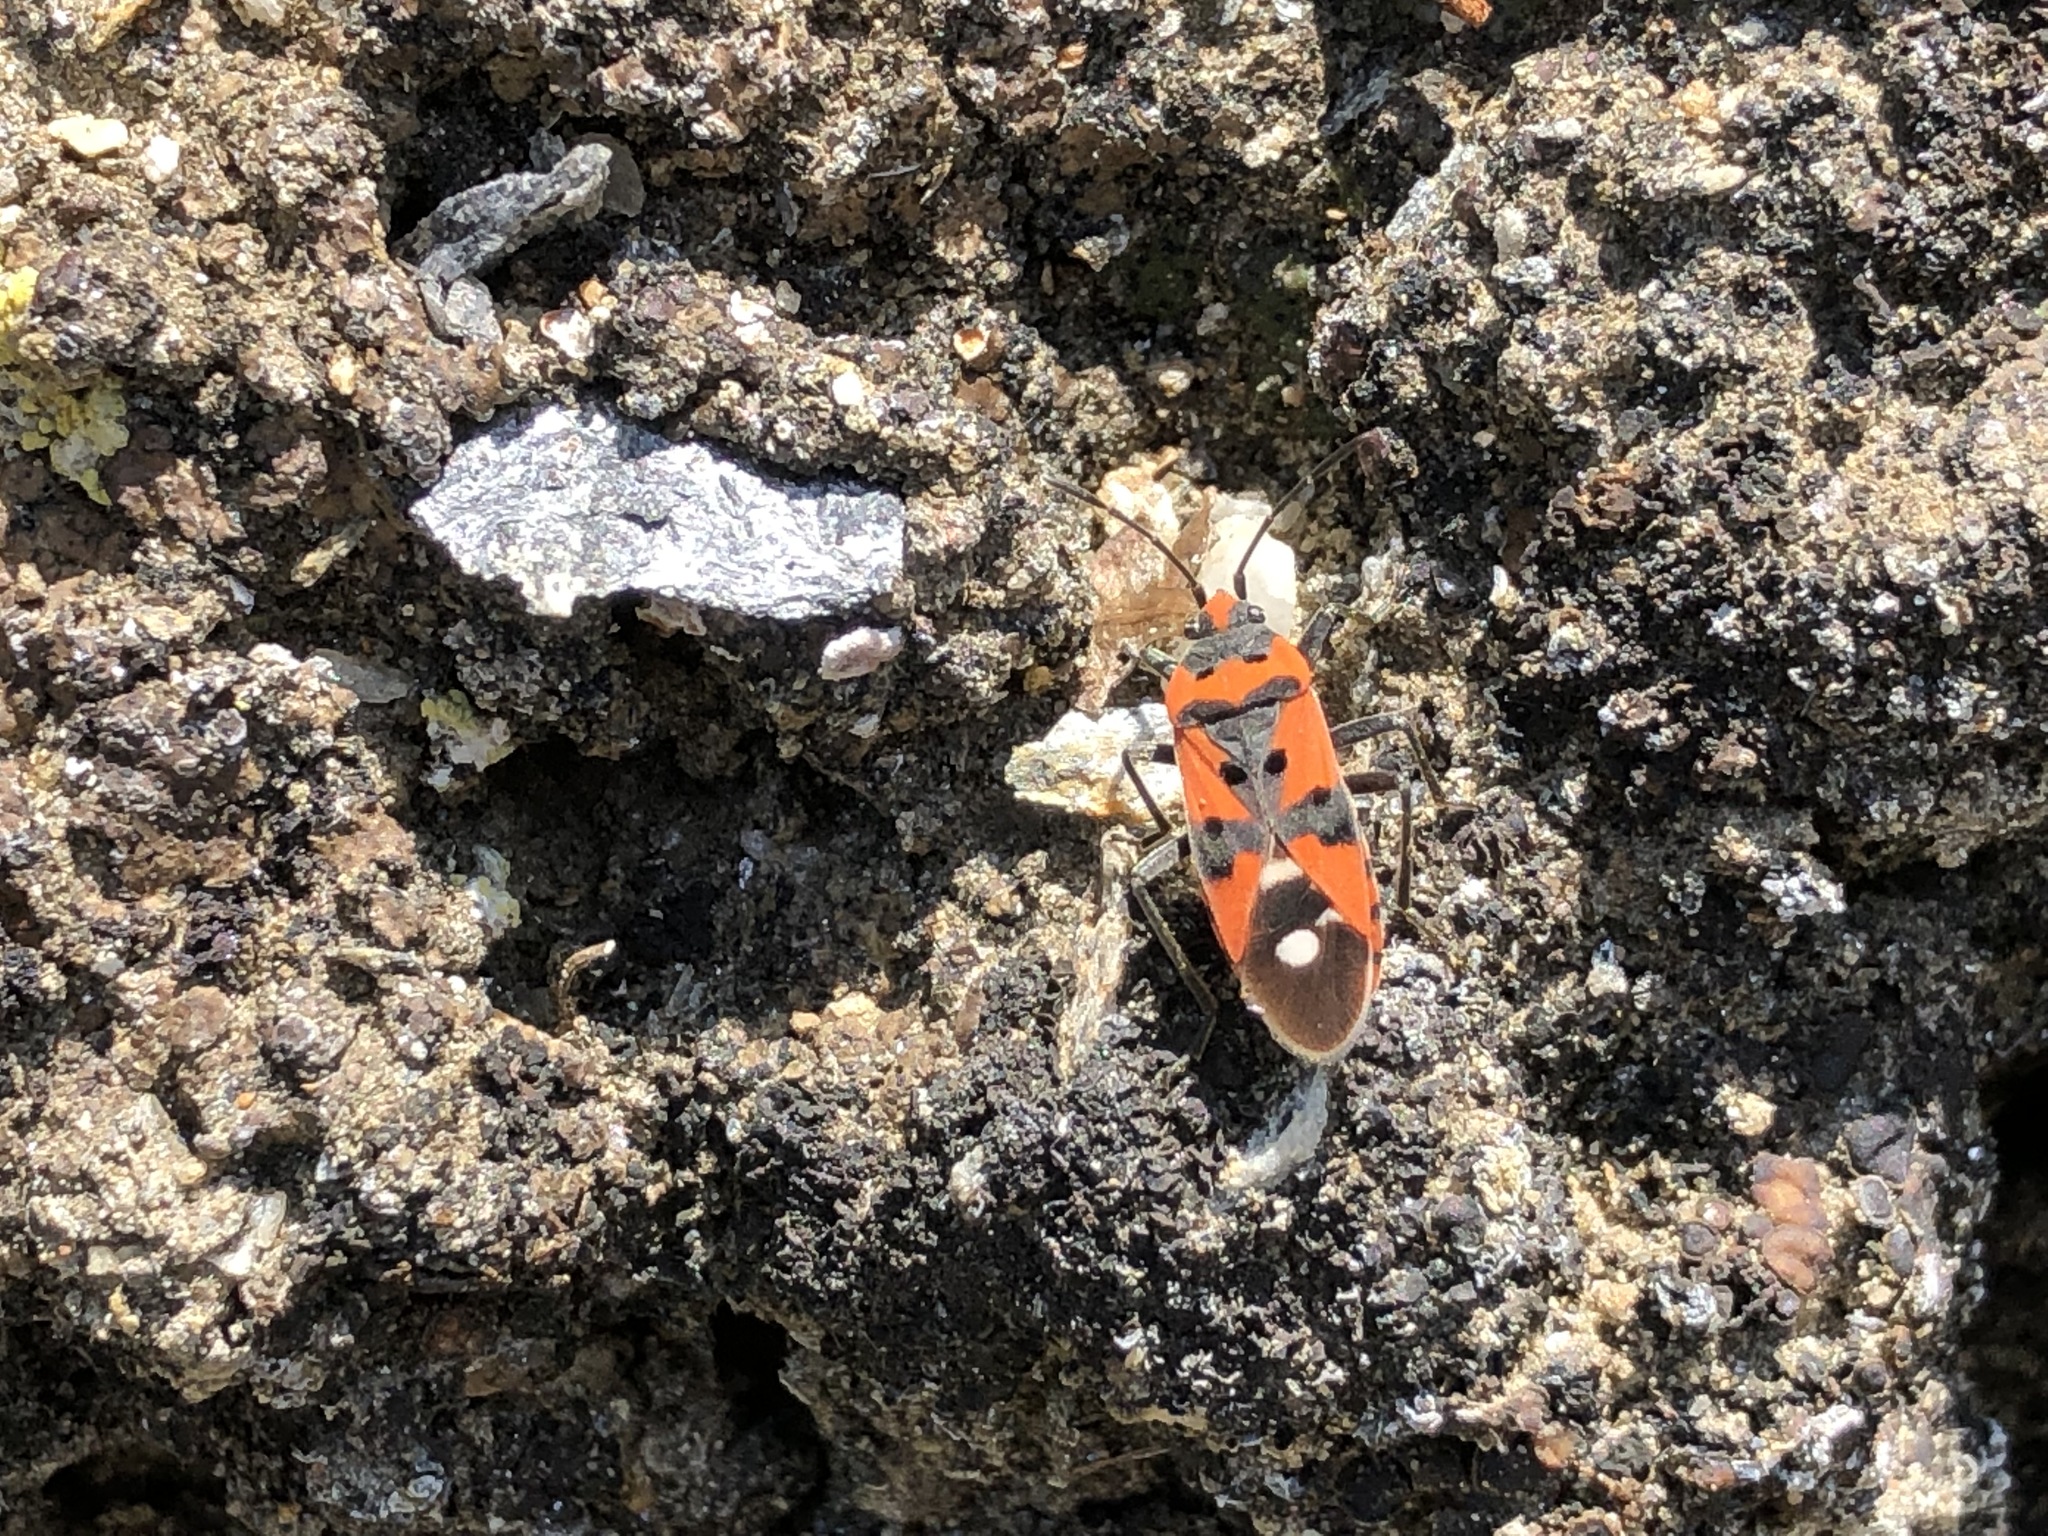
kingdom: Animalia
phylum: Arthropoda
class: Insecta
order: Hemiptera
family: Lygaeidae
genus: Lygaeus
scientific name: Lygaeus equestris
